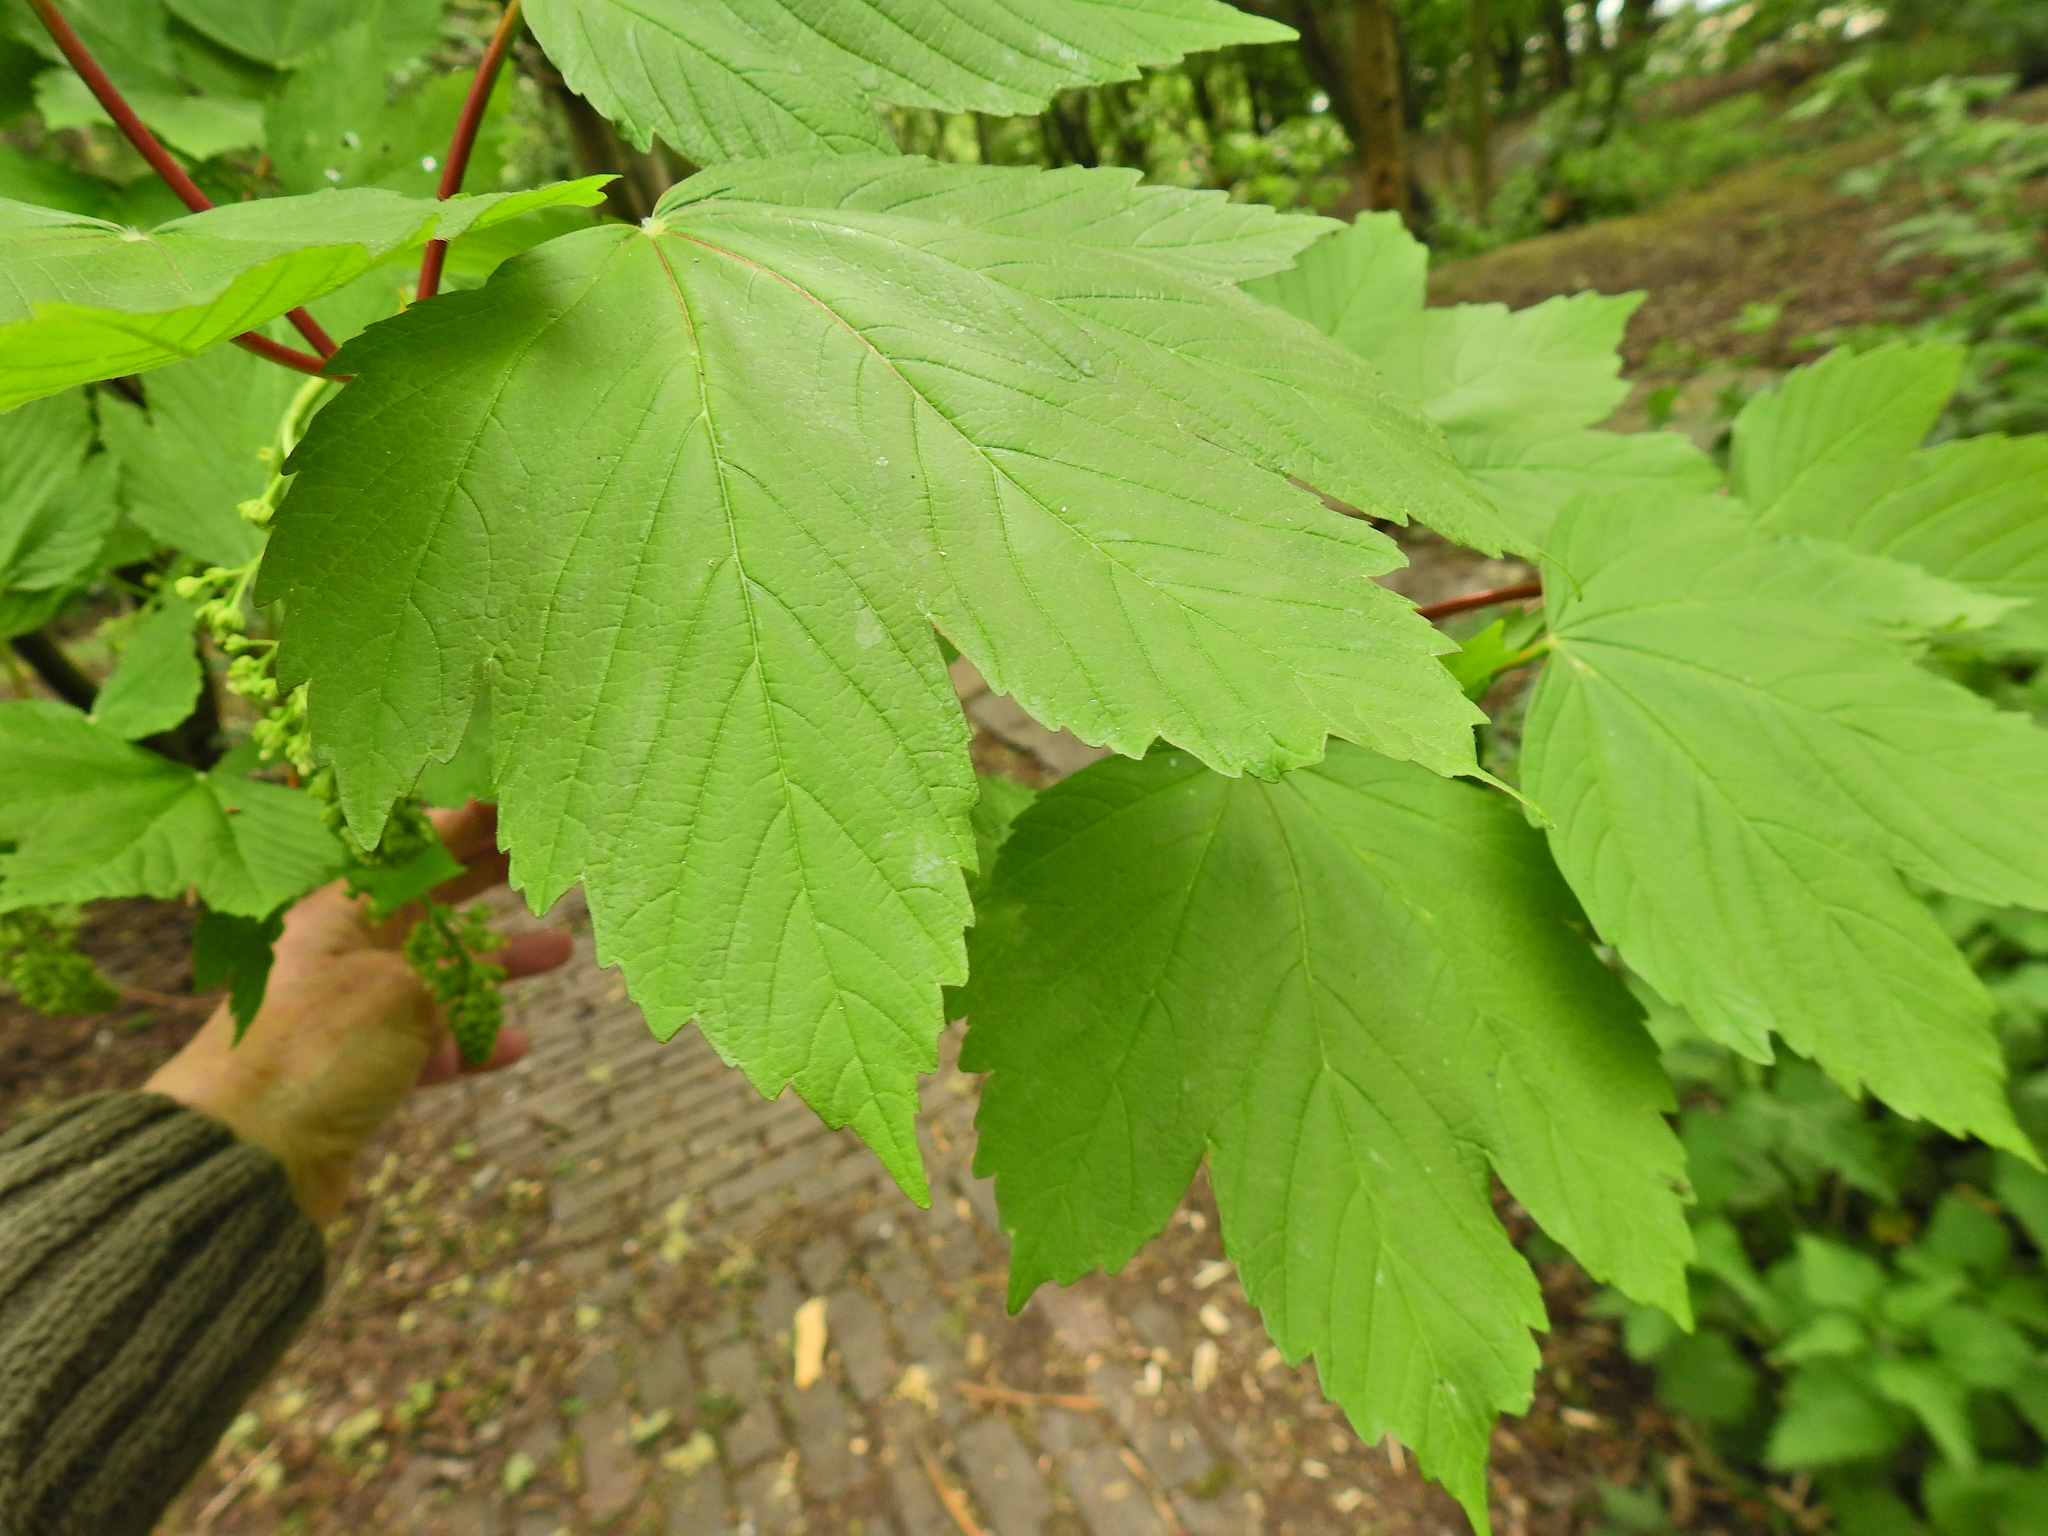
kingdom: Plantae
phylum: Tracheophyta
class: Magnoliopsida
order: Sapindales
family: Sapindaceae
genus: Acer
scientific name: Acer pseudoplatanus
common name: Sycamore
